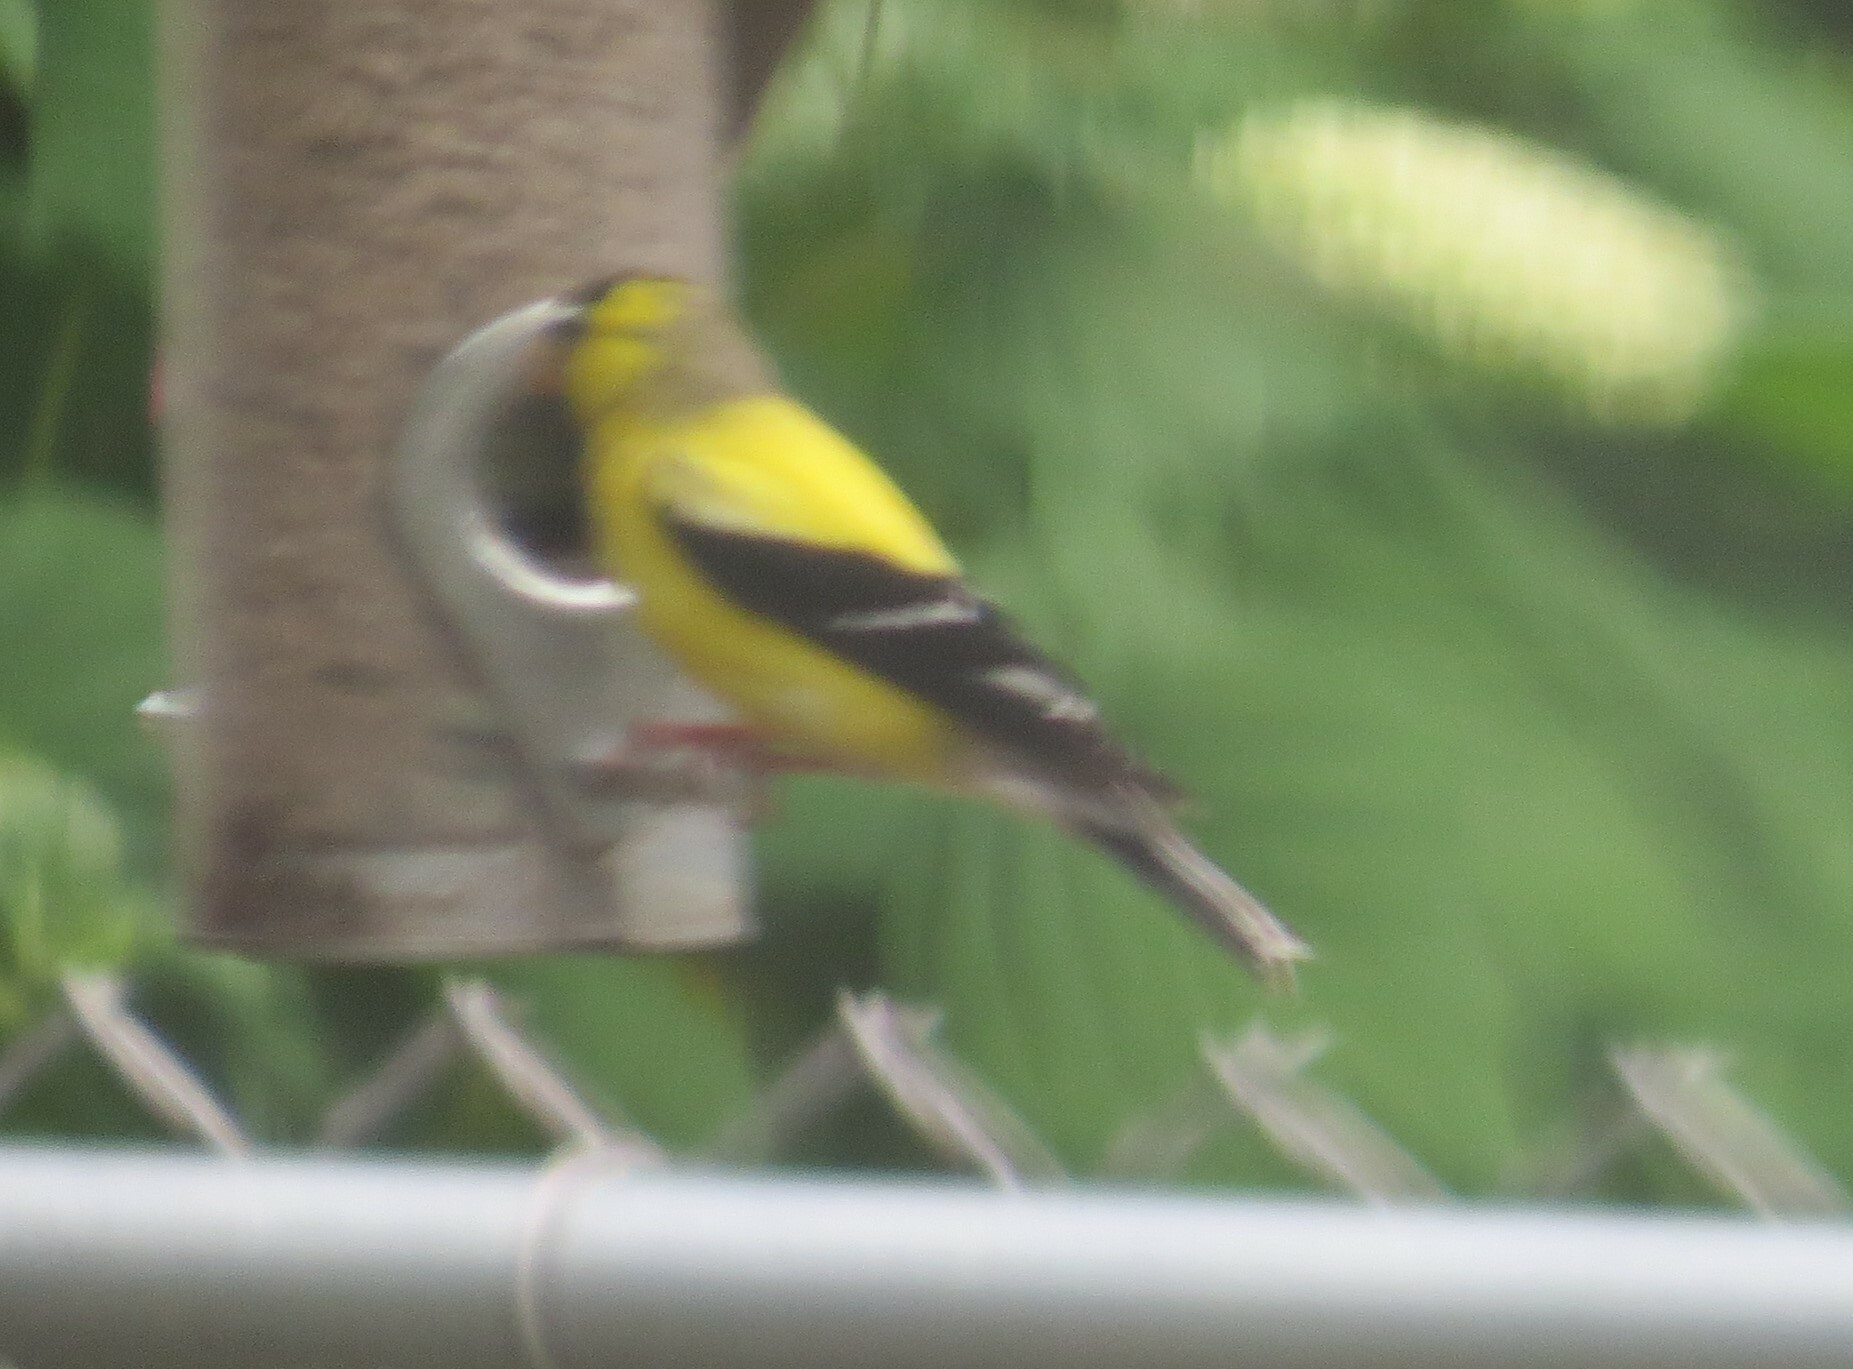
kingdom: Animalia
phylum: Chordata
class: Aves
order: Passeriformes
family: Fringillidae
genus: Spinus
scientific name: Spinus tristis
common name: American goldfinch
